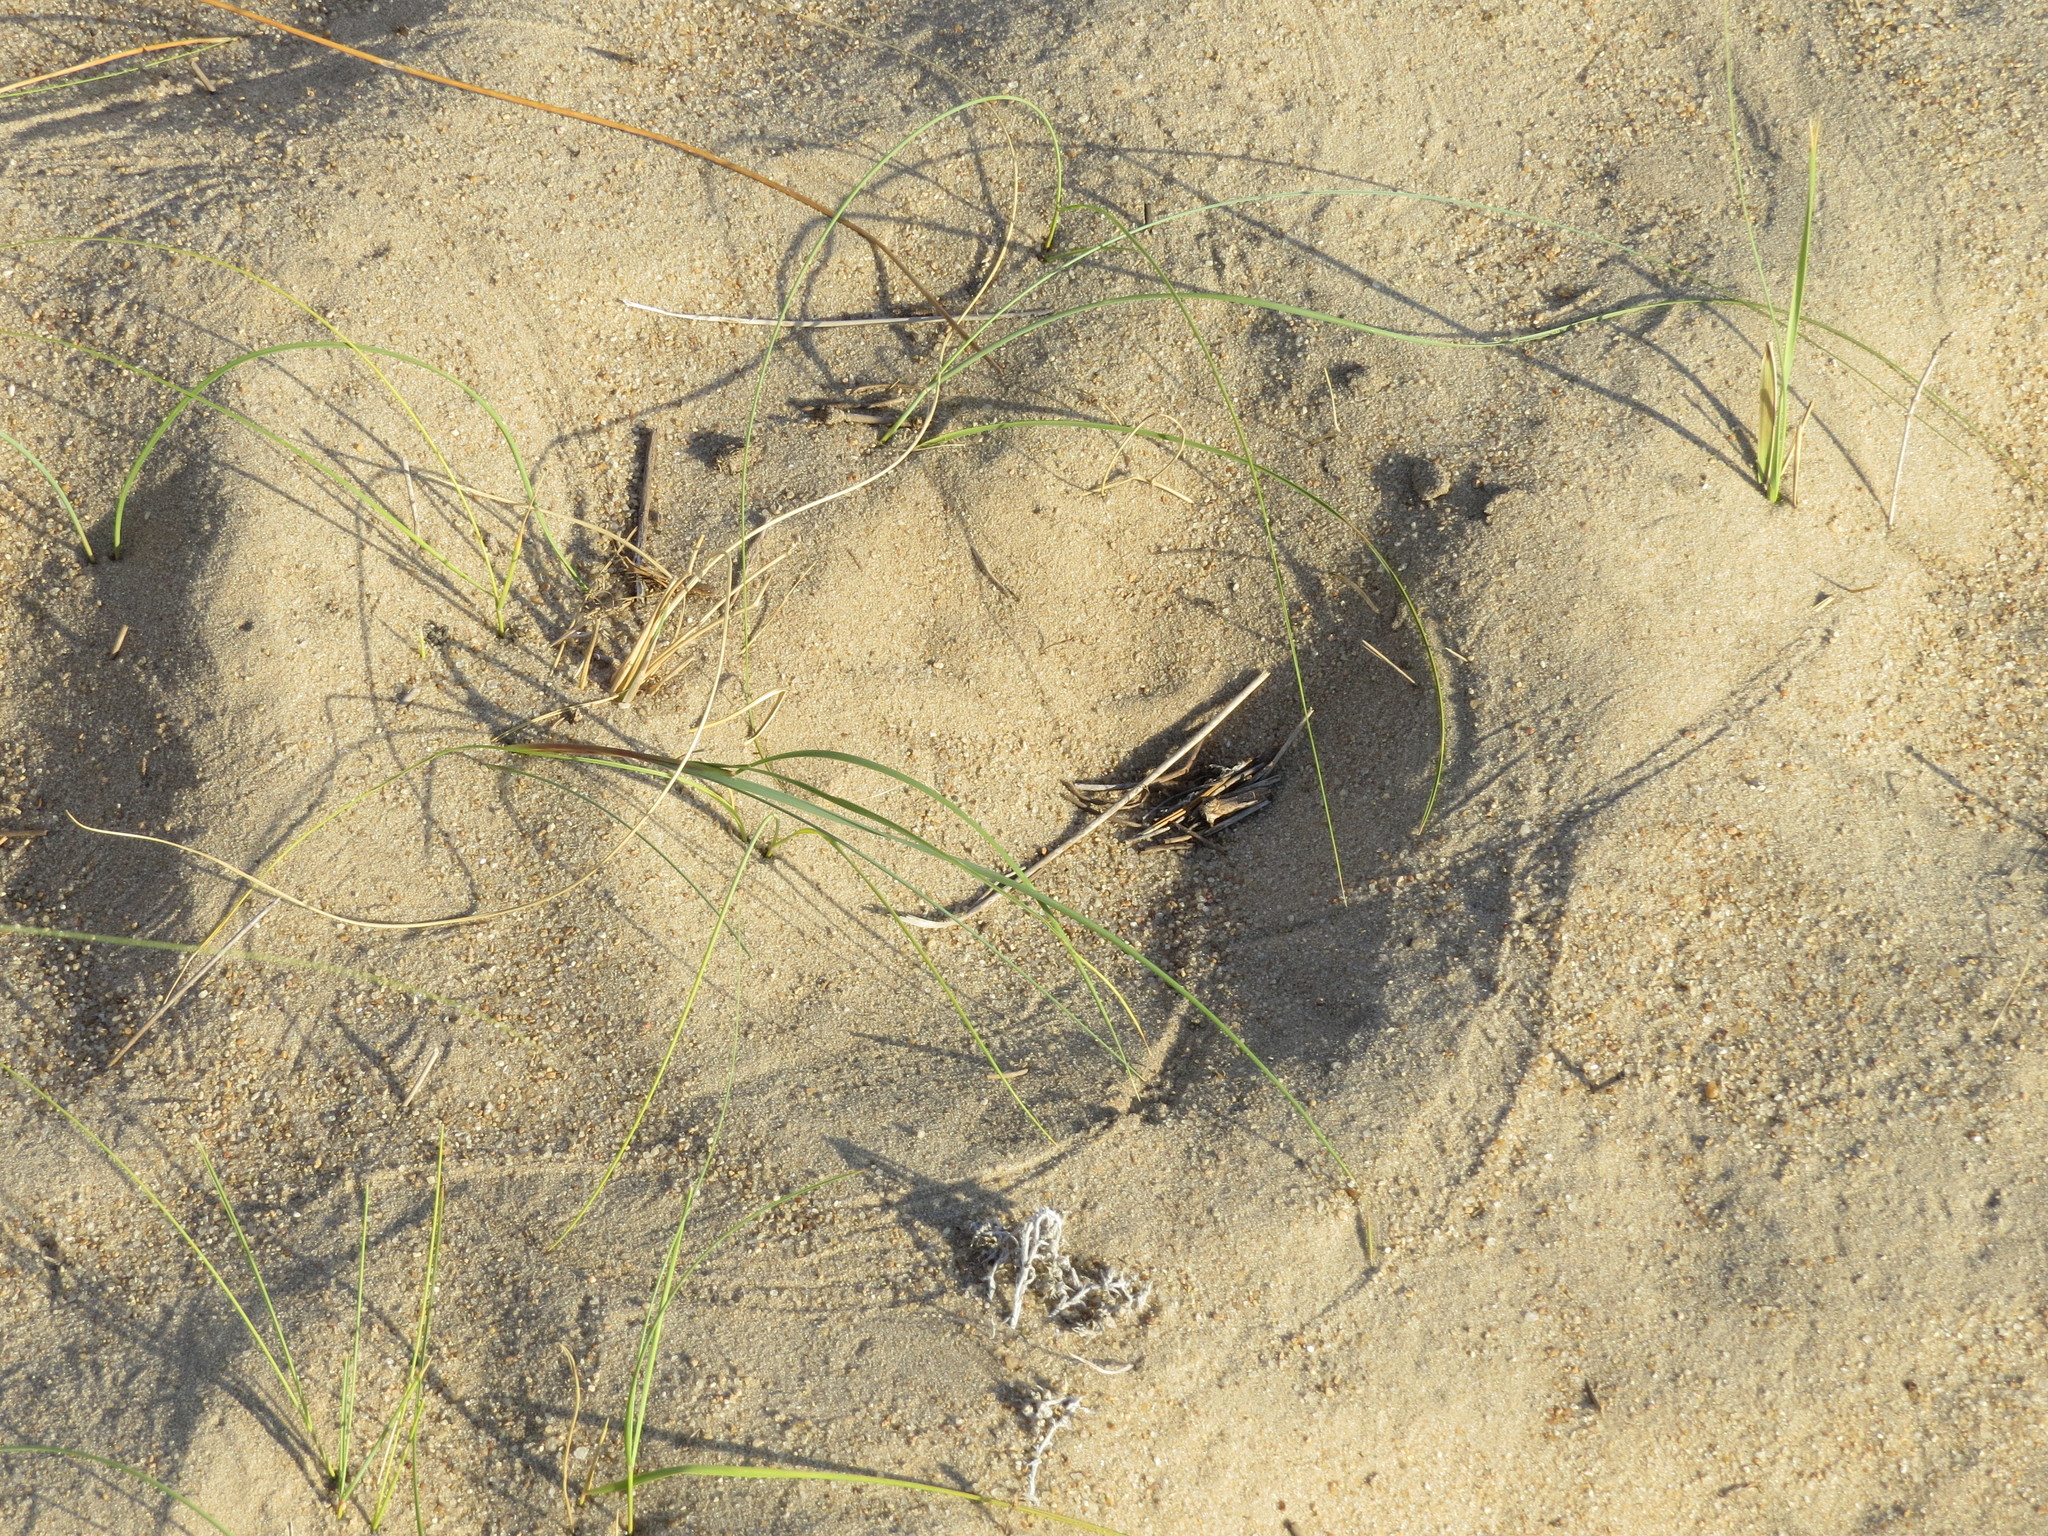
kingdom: Plantae
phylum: Tracheophyta
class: Liliopsida
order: Poales
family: Poaceae
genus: Panicum
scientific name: Panicum racemosum
